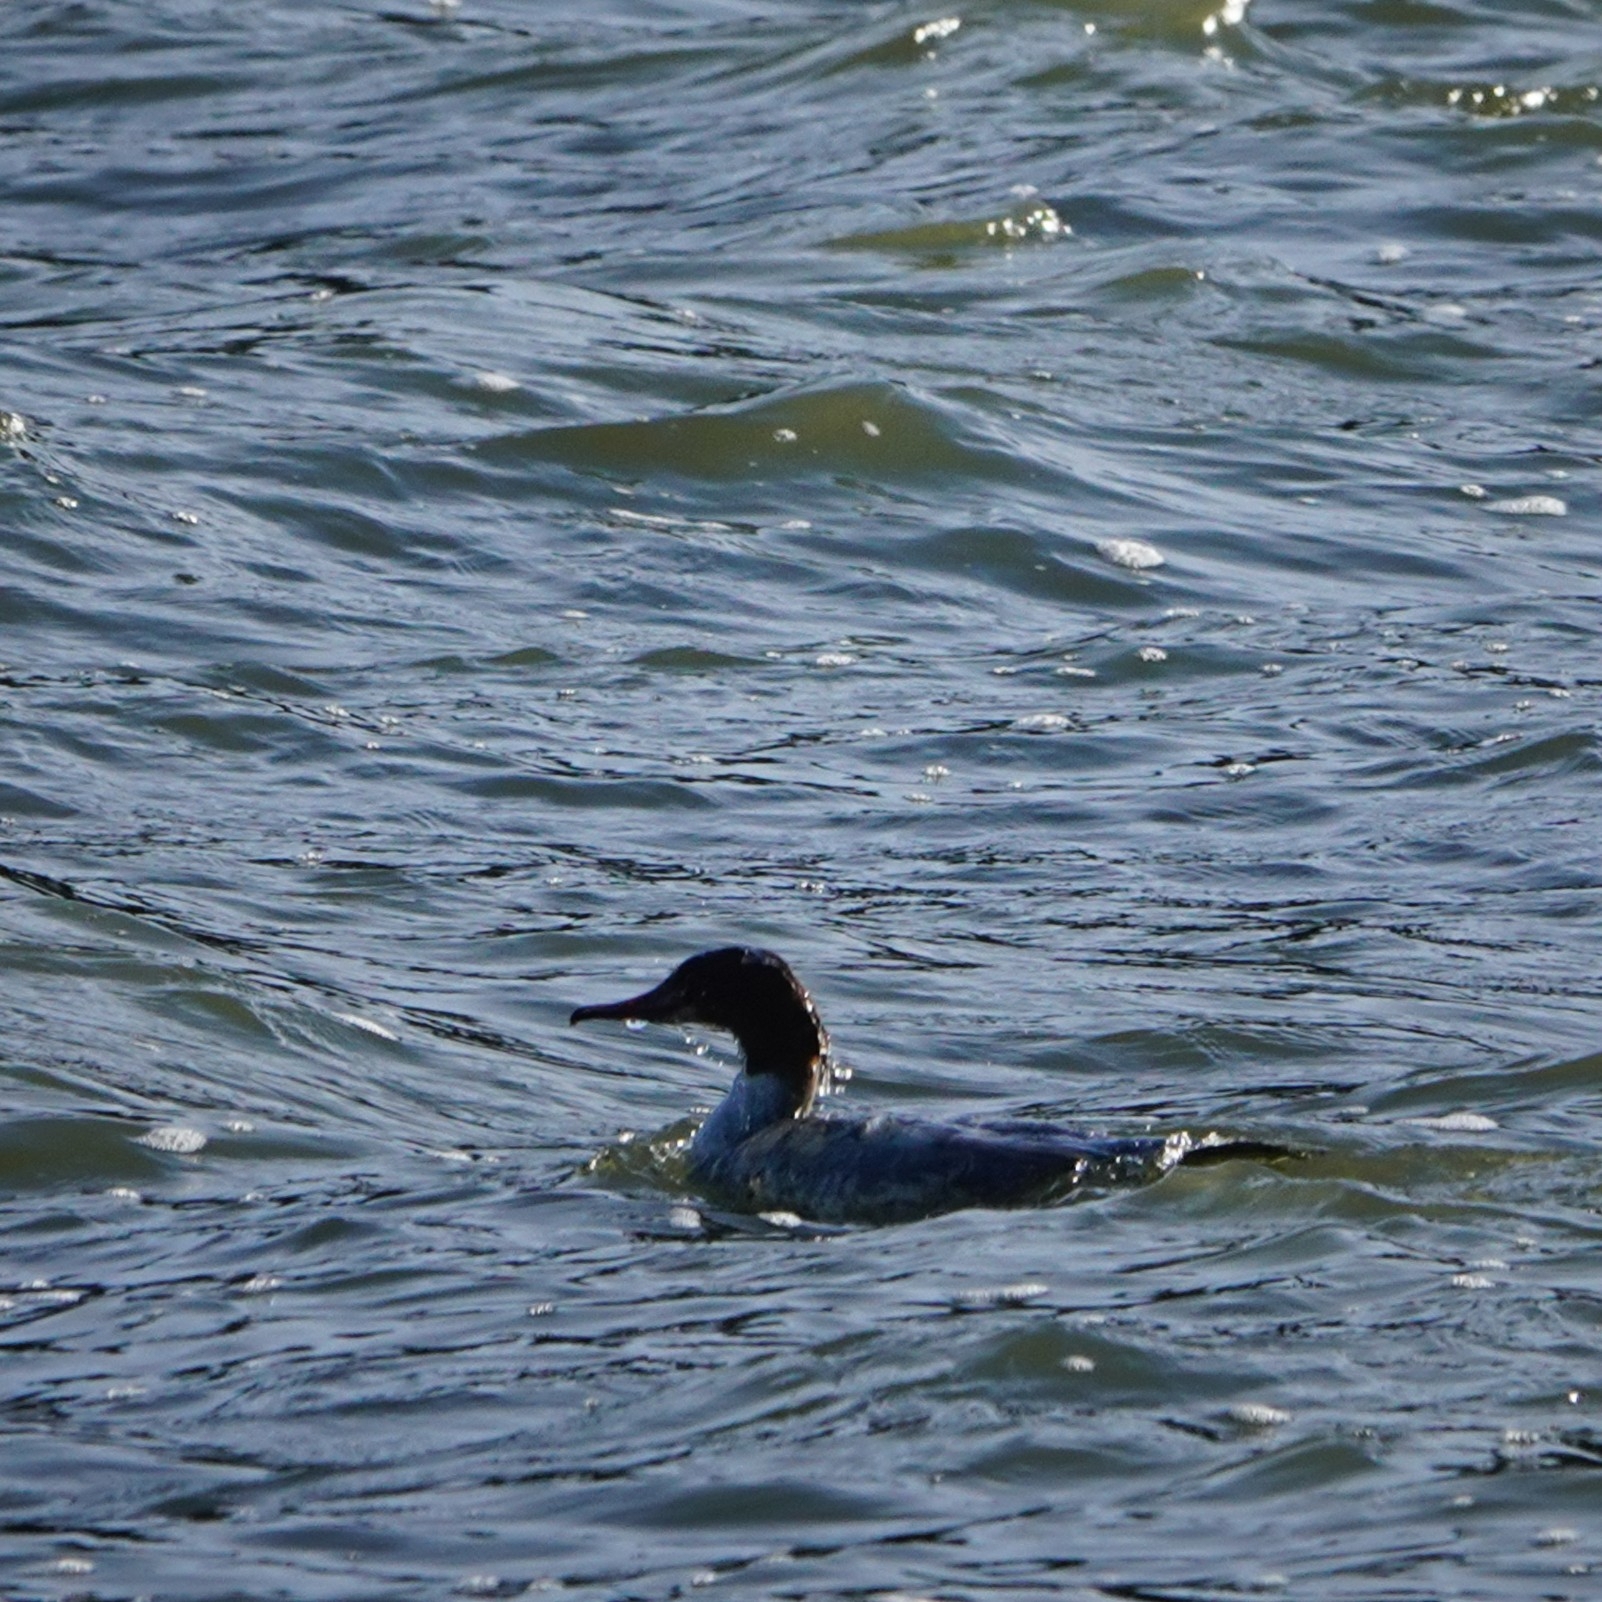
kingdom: Animalia
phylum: Chordata
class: Aves
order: Anseriformes
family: Anatidae
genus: Mergus
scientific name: Mergus merganser
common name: Common merganser
